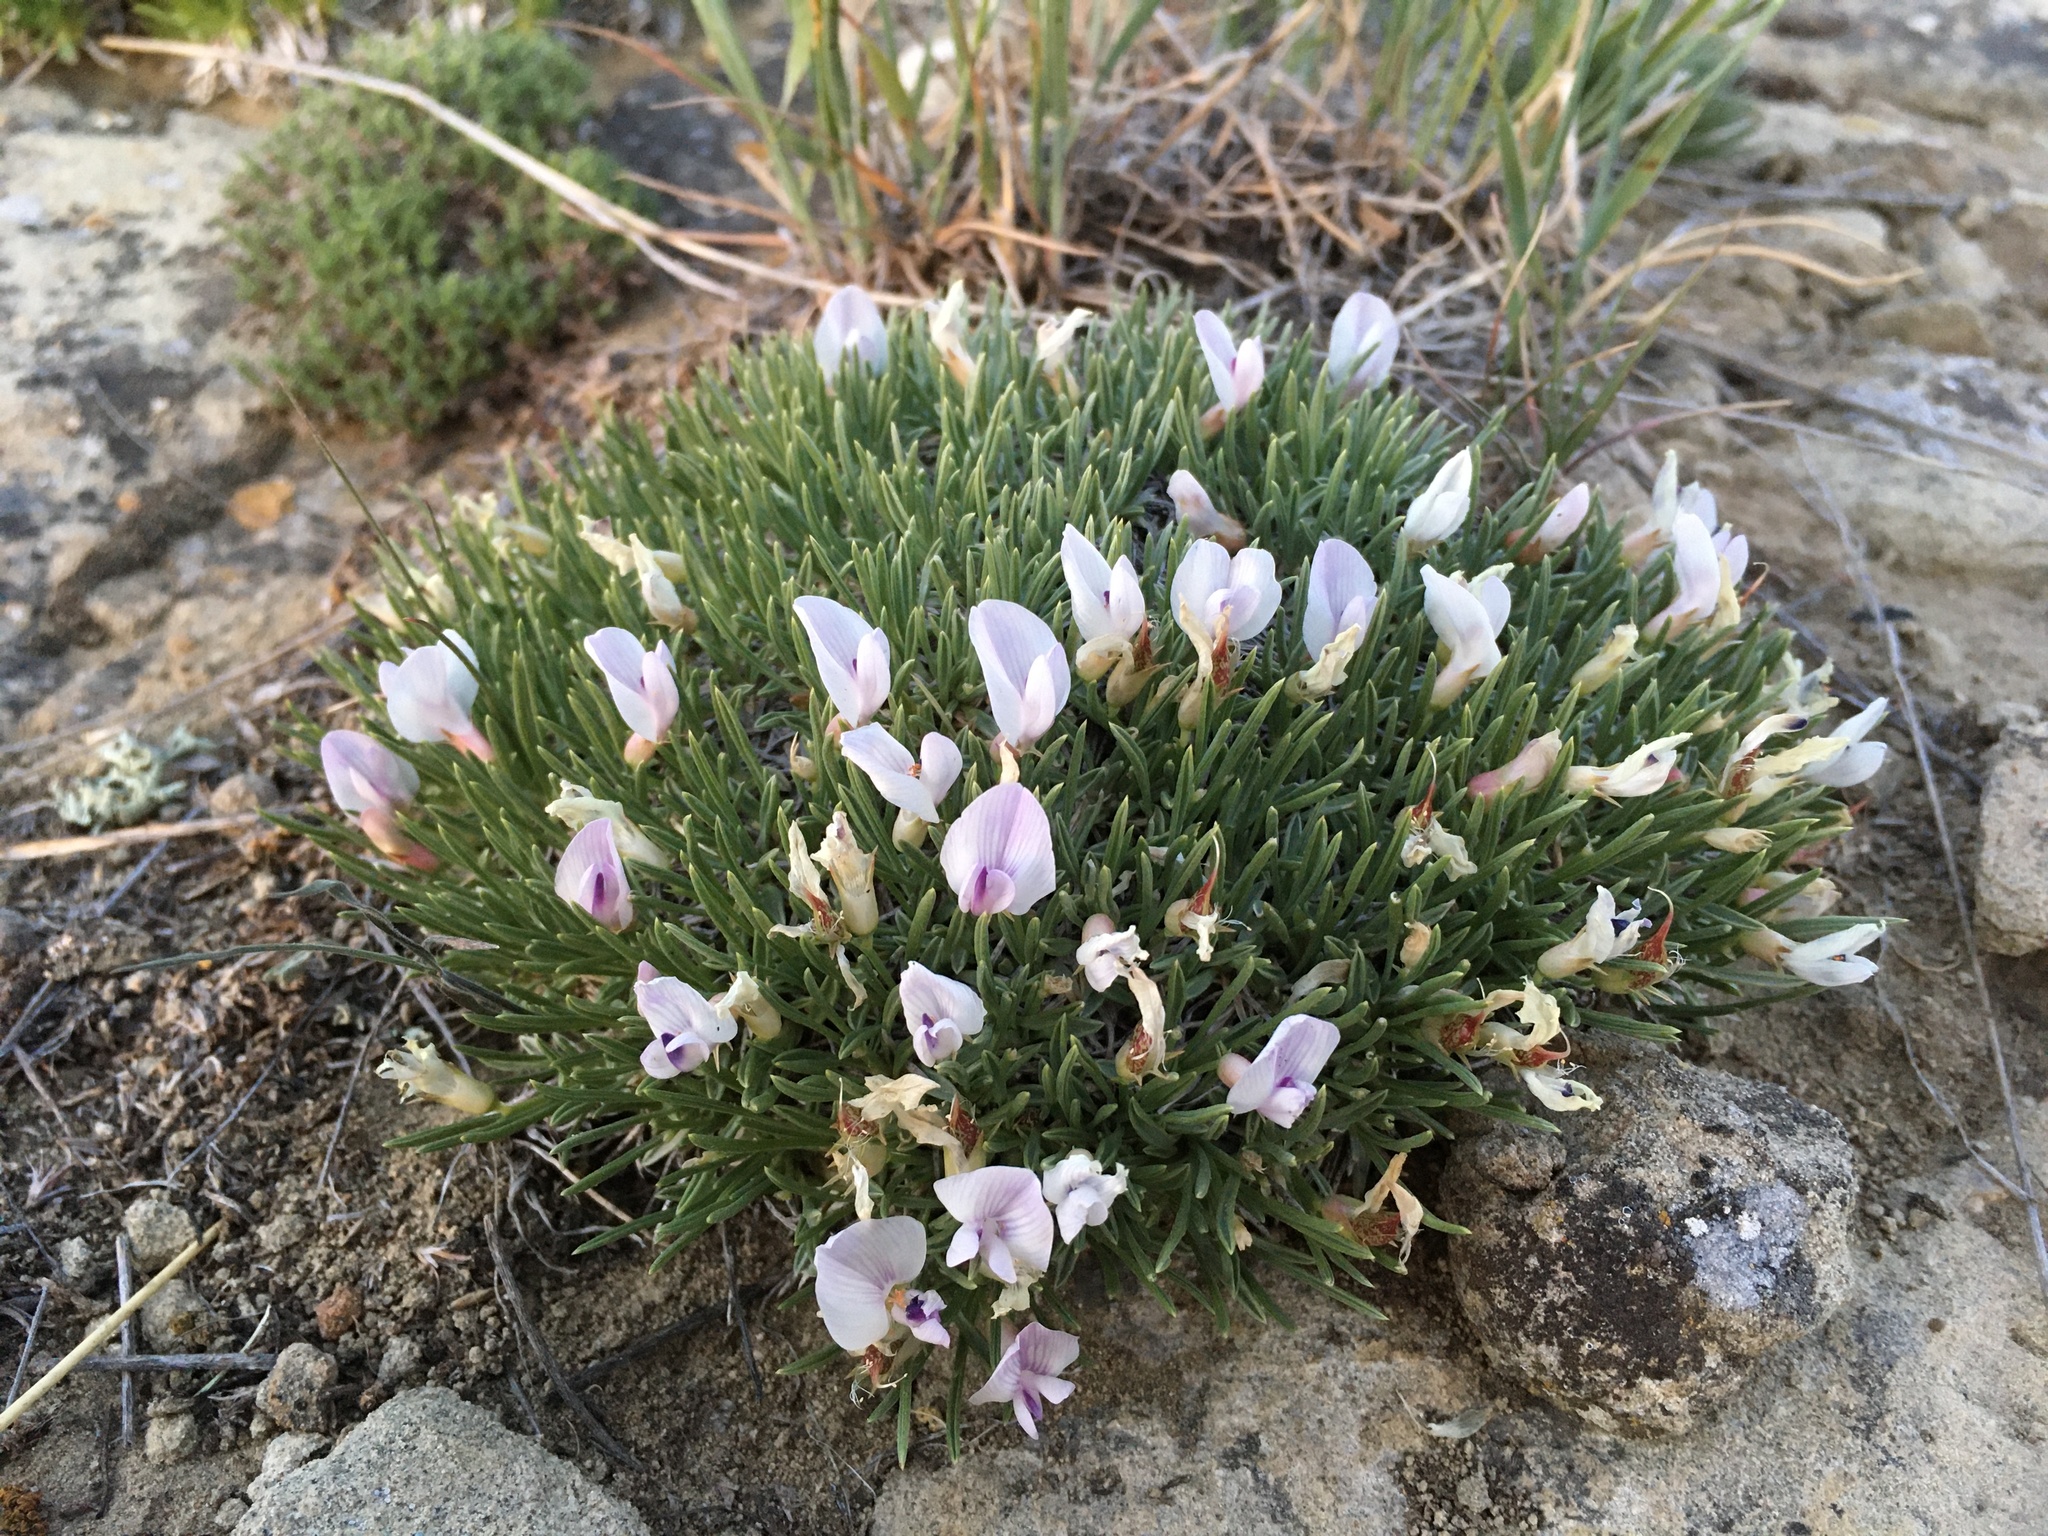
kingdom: Plantae
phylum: Tracheophyta
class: Magnoliopsida
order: Fabales
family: Fabaceae
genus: Astragalus
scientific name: Astragalus simplicifolius
